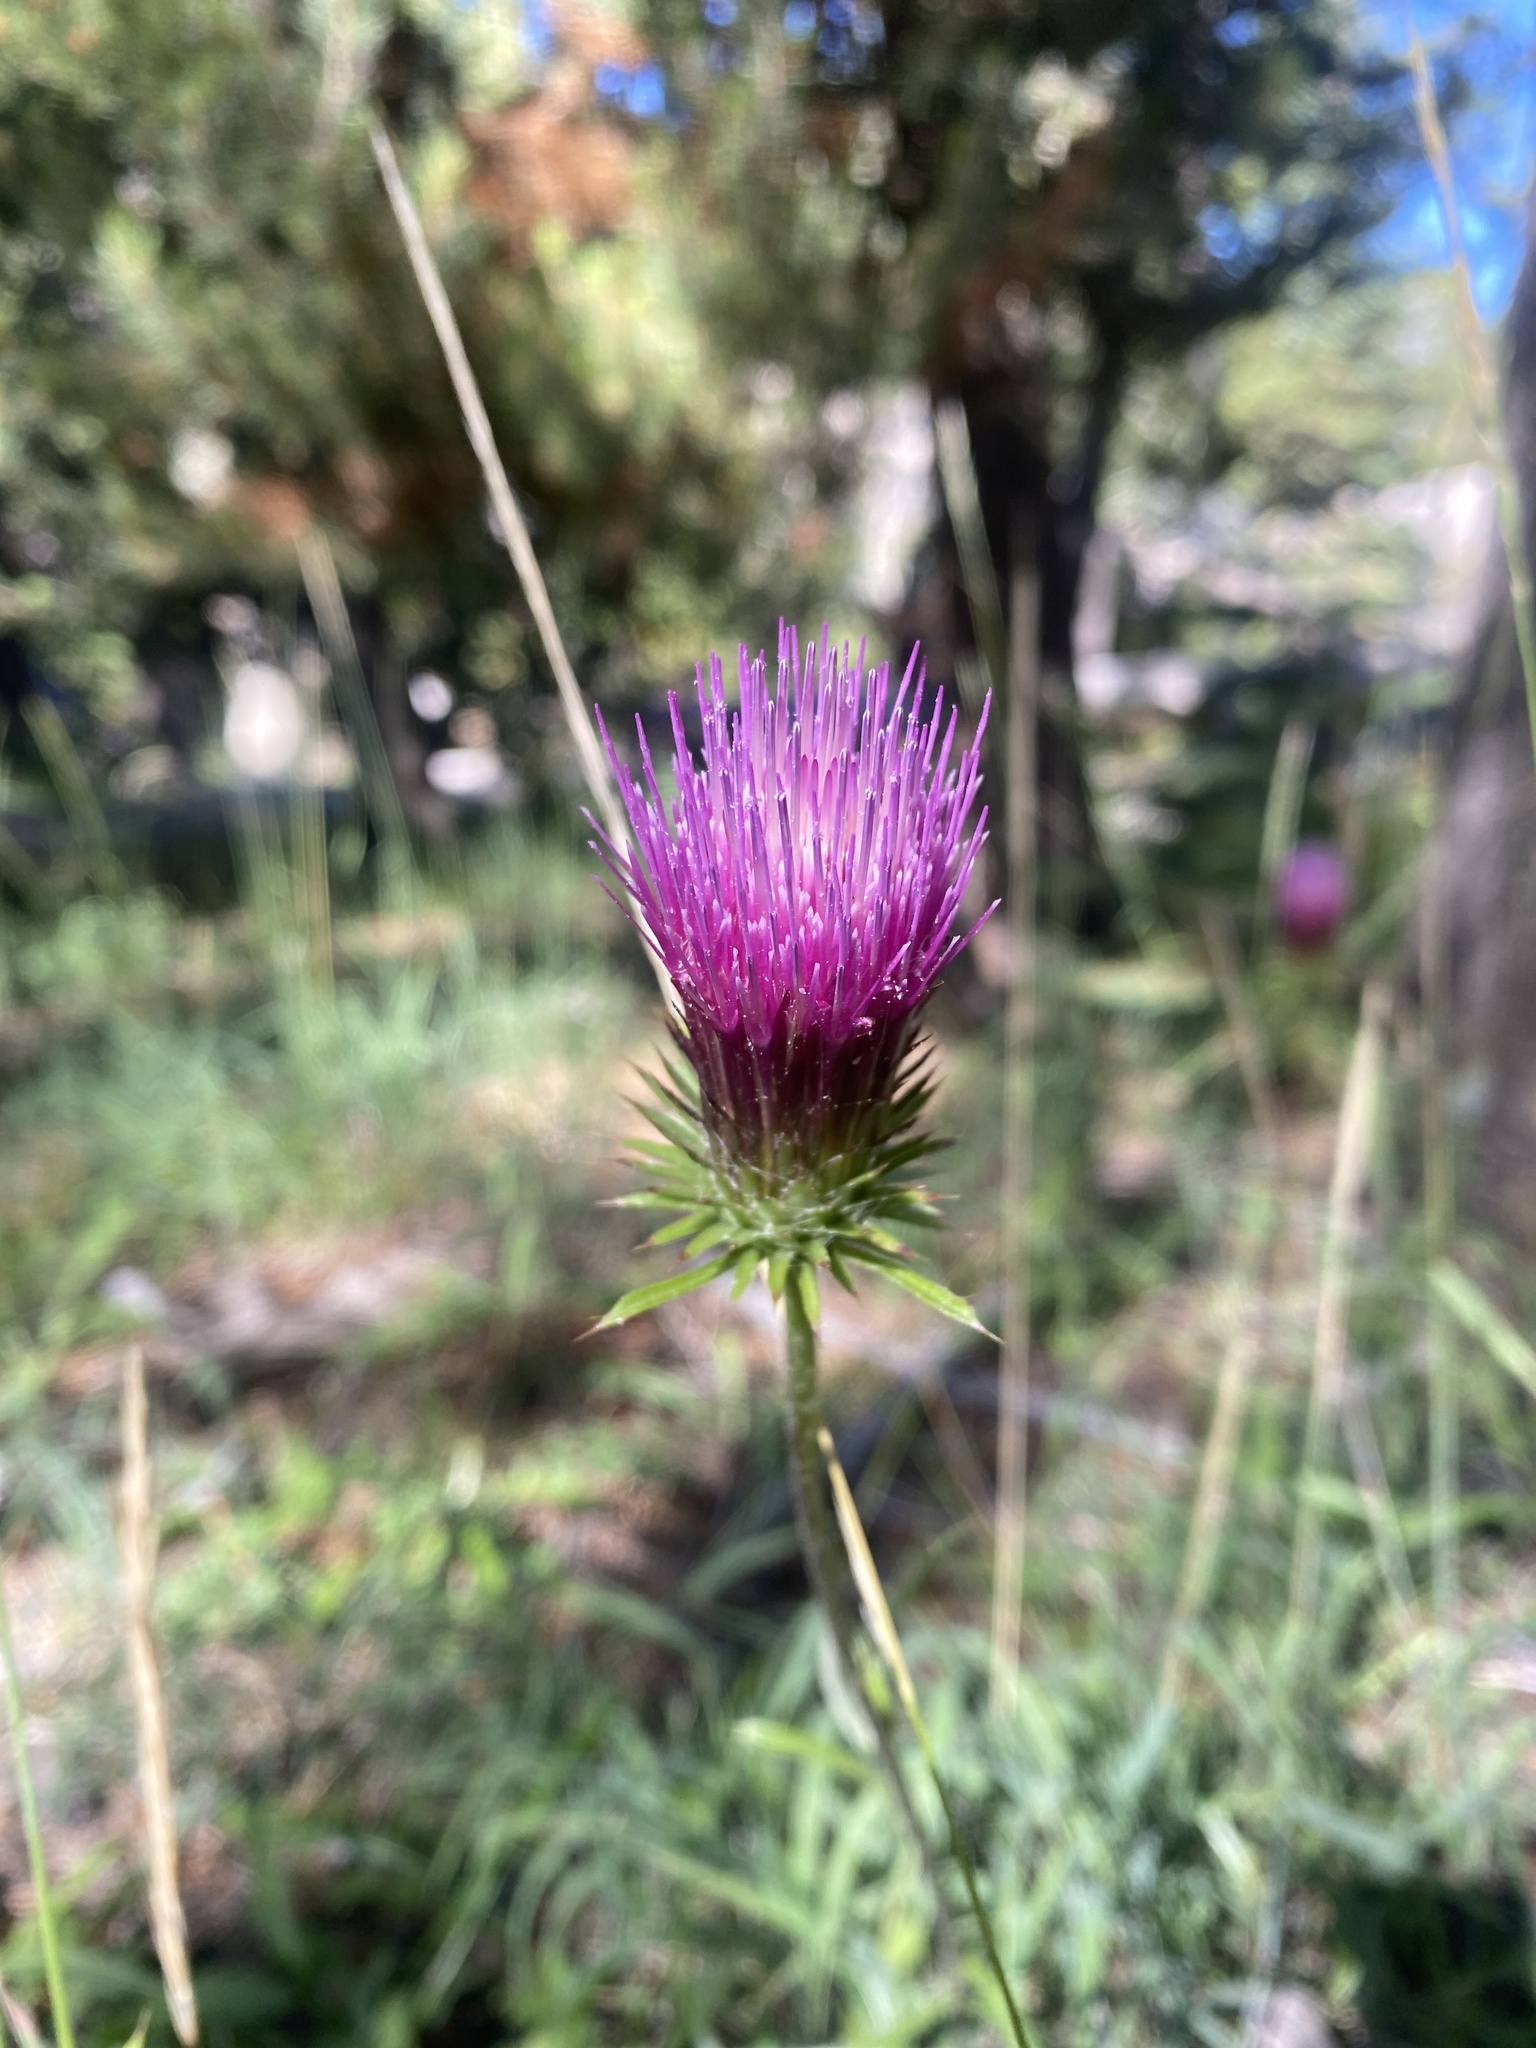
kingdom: Plantae
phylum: Tracheophyta
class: Magnoliopsida
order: Asterales
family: Asteraceae
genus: Cirsium
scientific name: Cirsium andersonii
